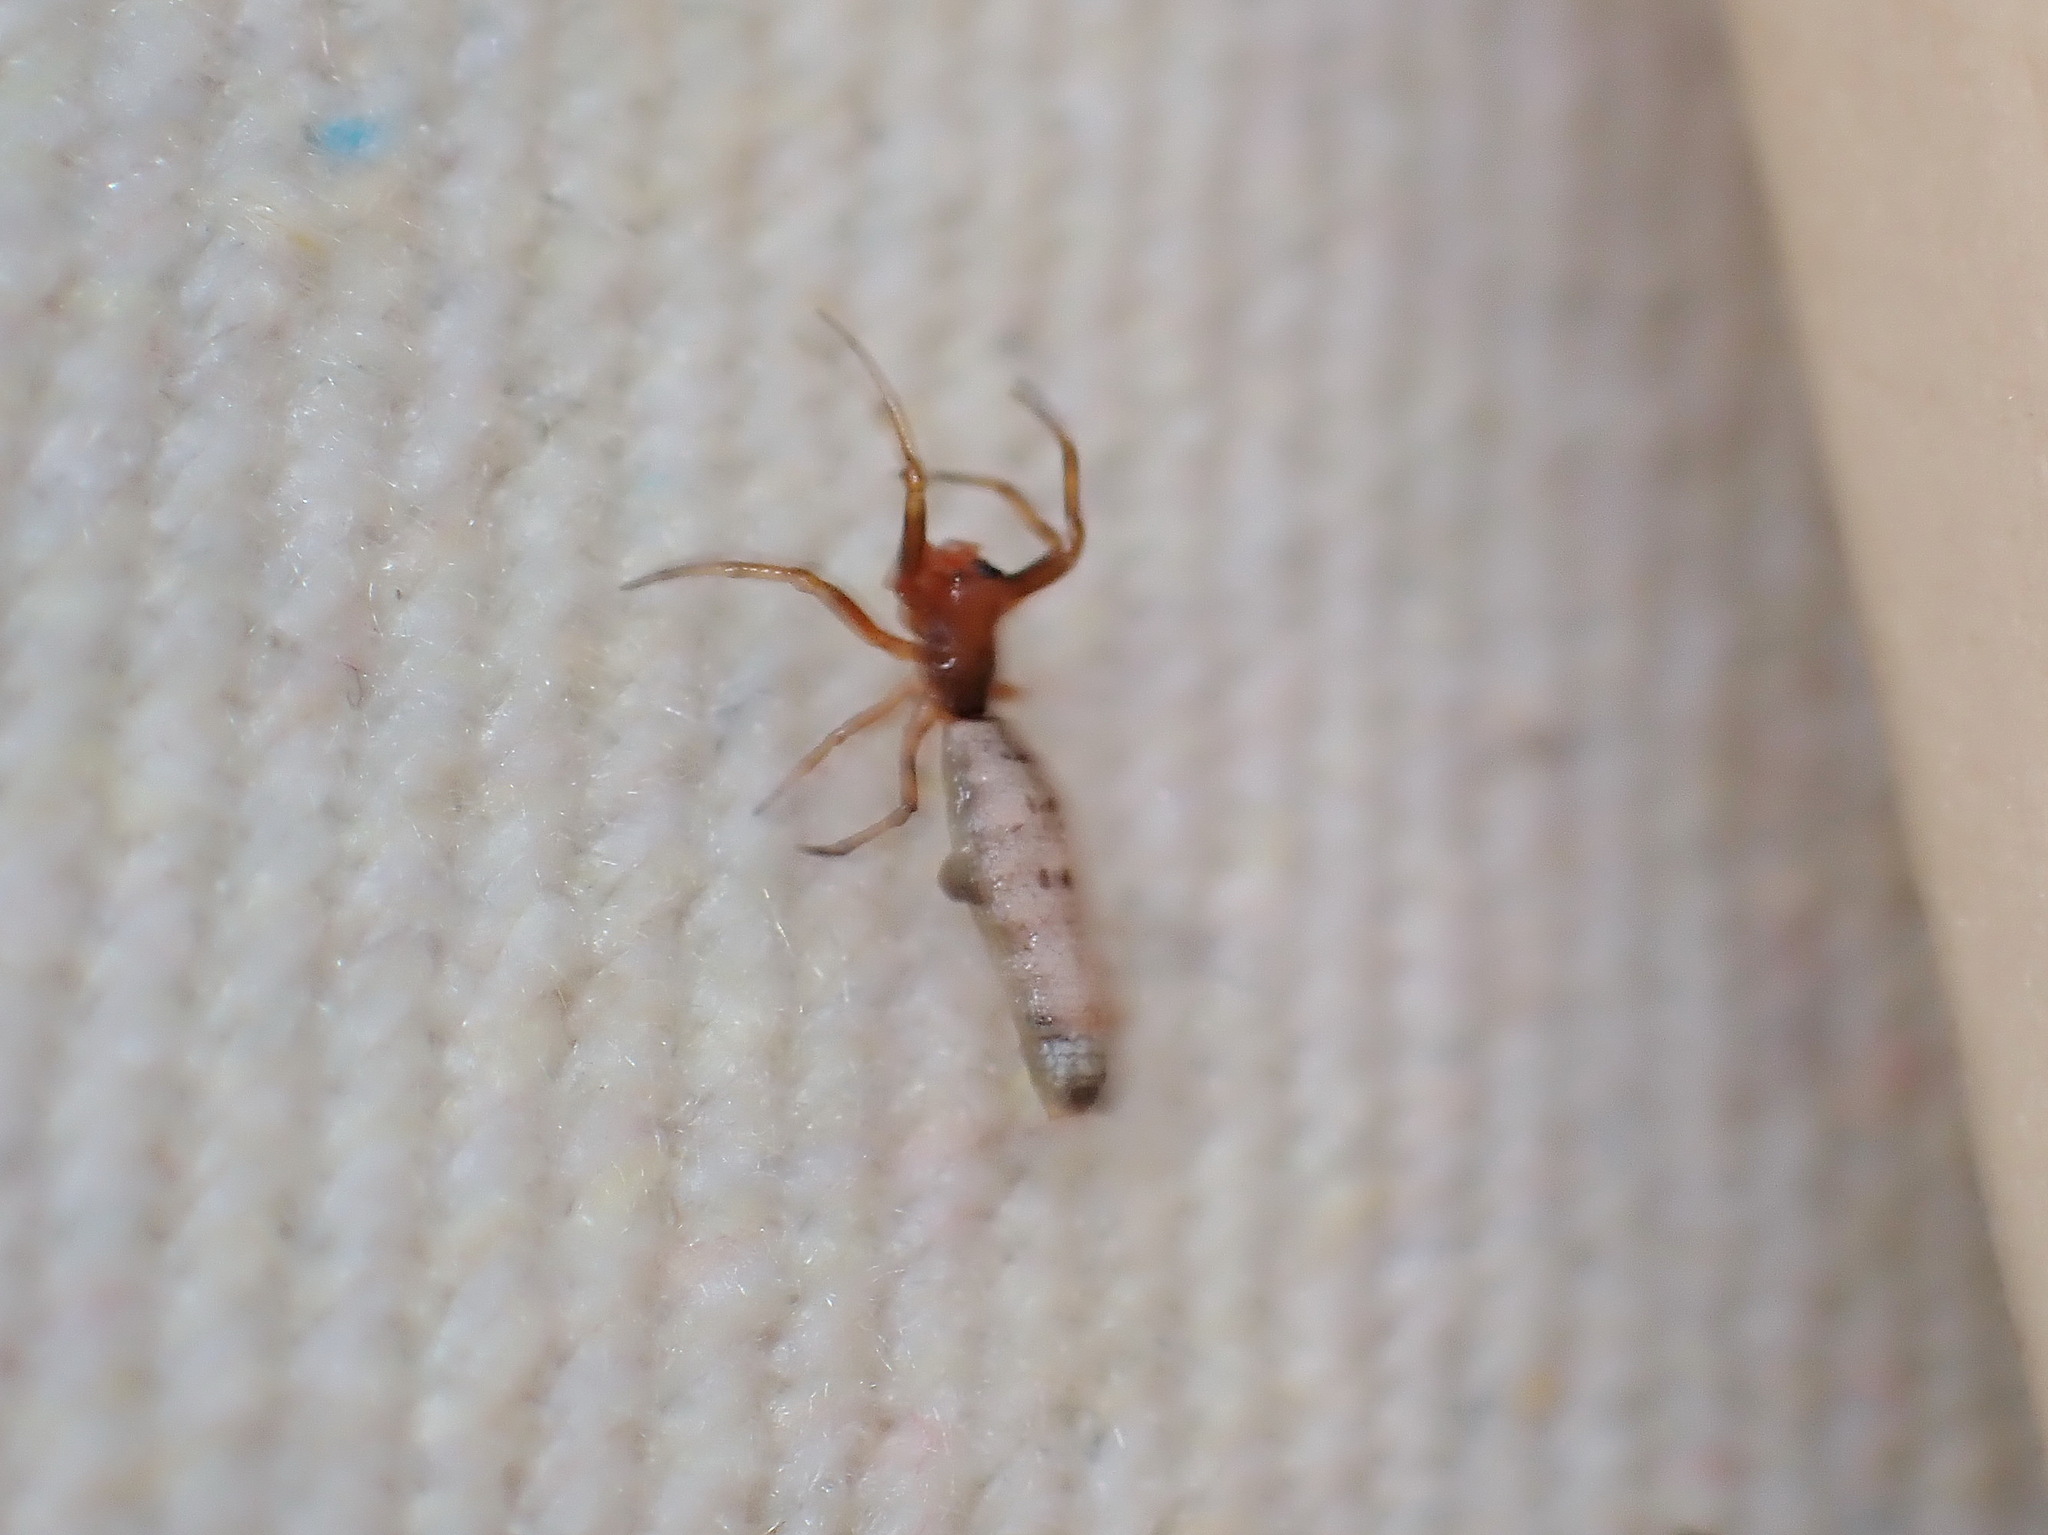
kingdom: Animalia
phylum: Arthropoda
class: Arachnida
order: Araneae
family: Araneidae
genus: Micrathena
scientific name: Micrathena gracilis
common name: Orb weavers
